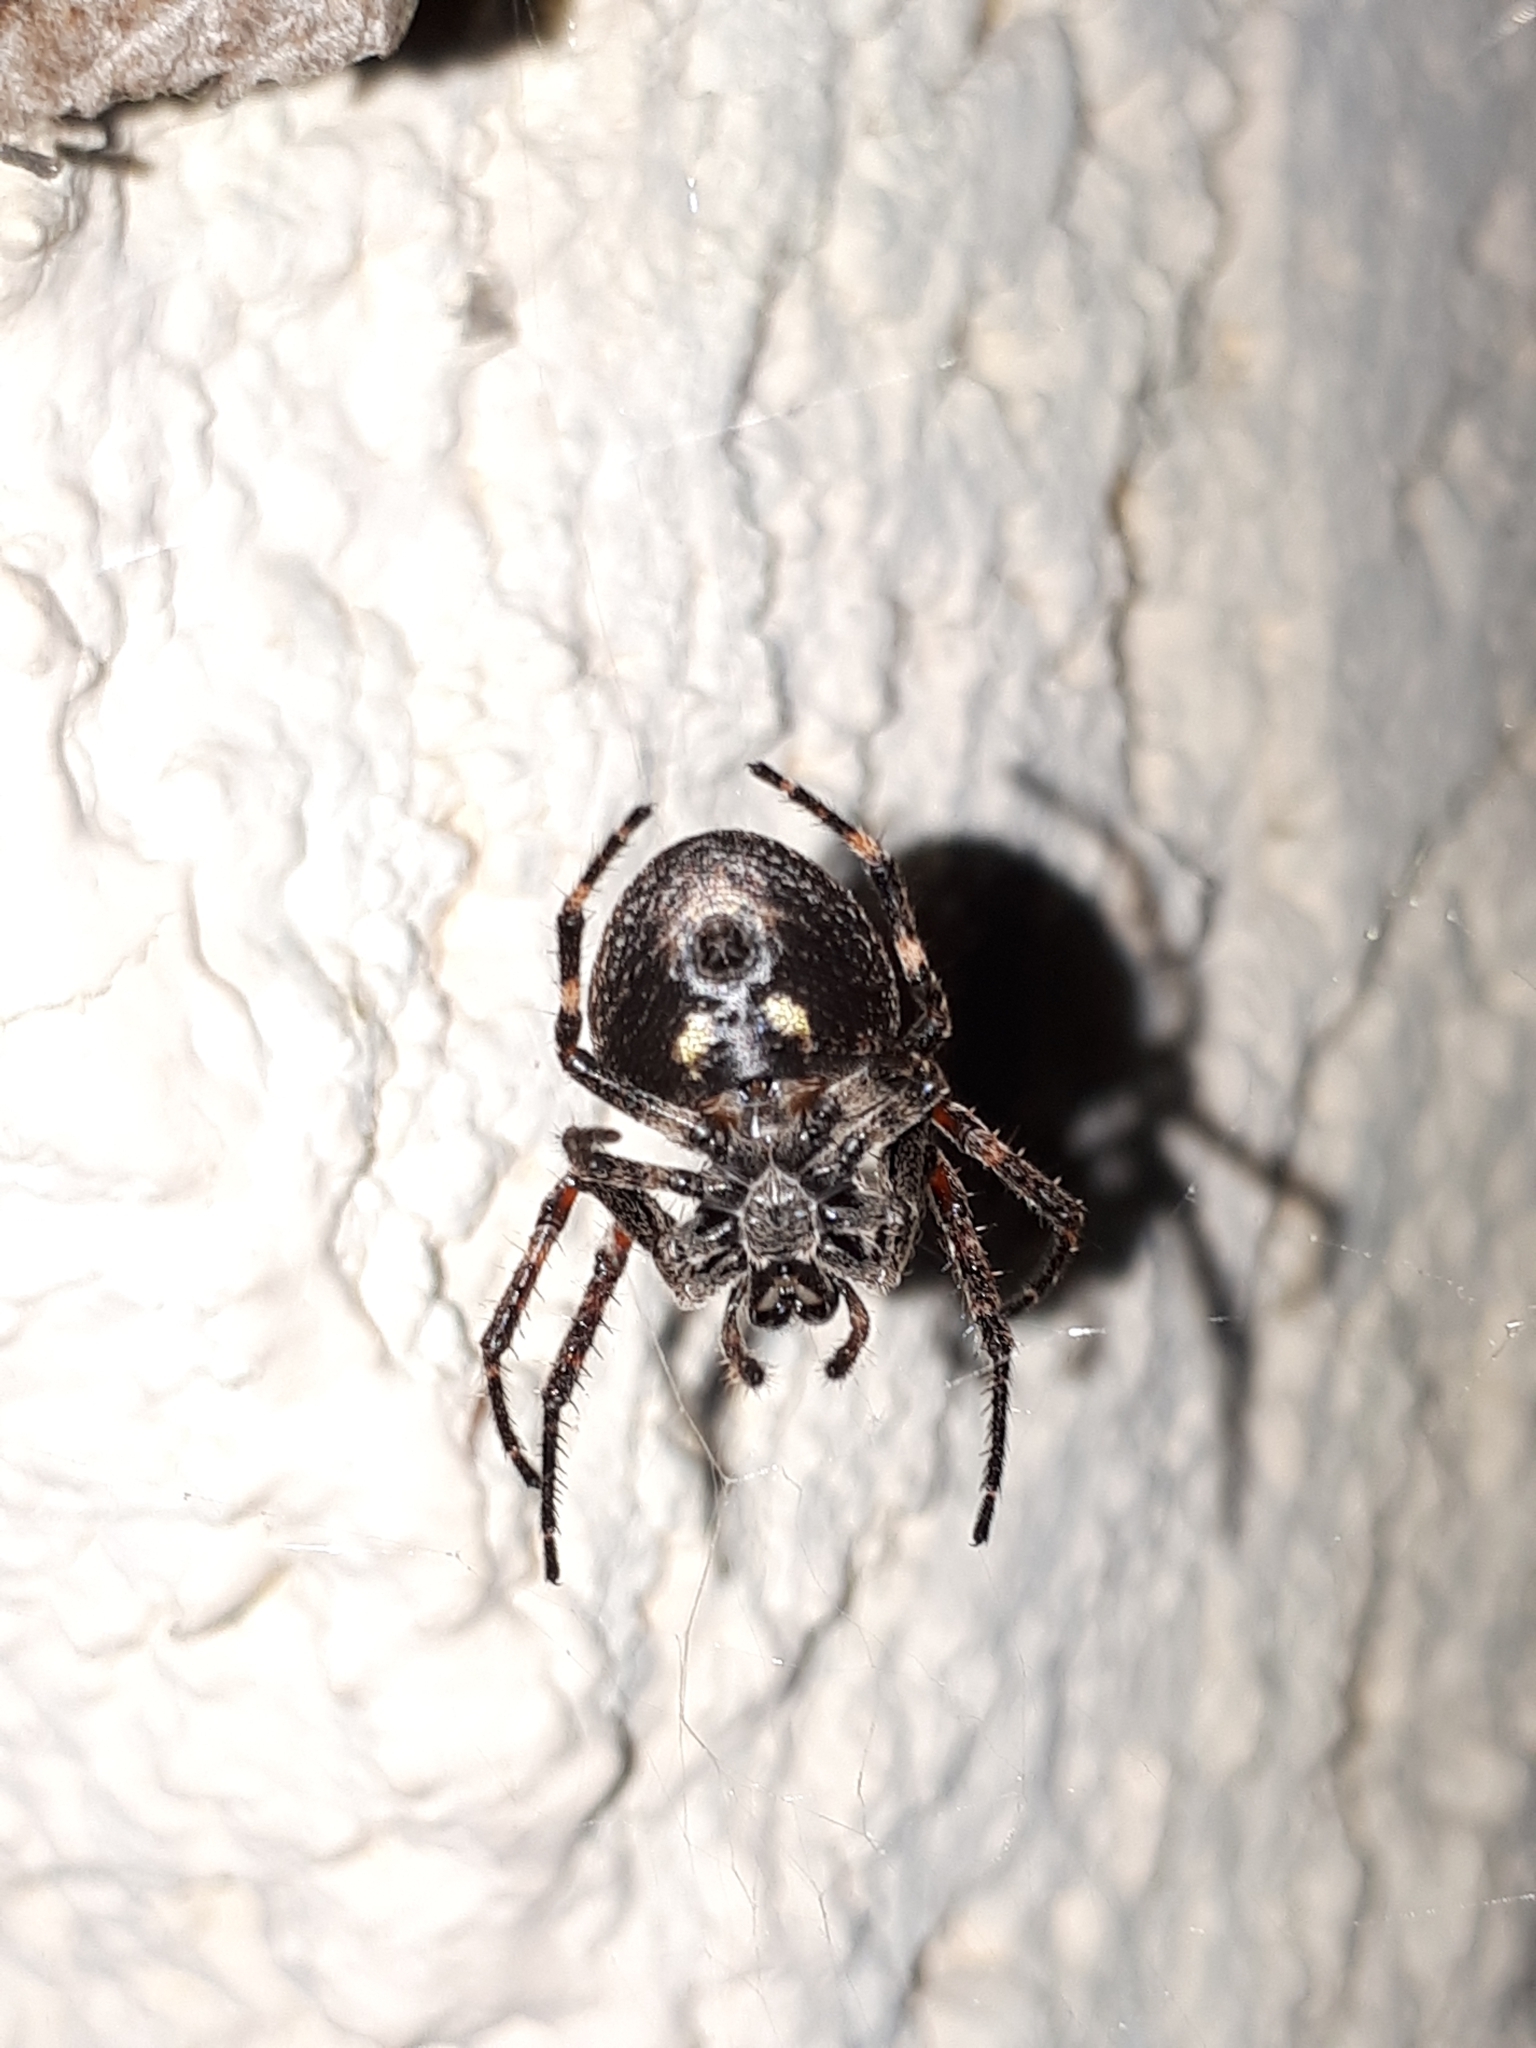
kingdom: Animalia
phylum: Arthropoda
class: Arachnida
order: Araneae
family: Araneidae
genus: Nuctenea
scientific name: Nuctenea umbratica
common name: Toad spider
